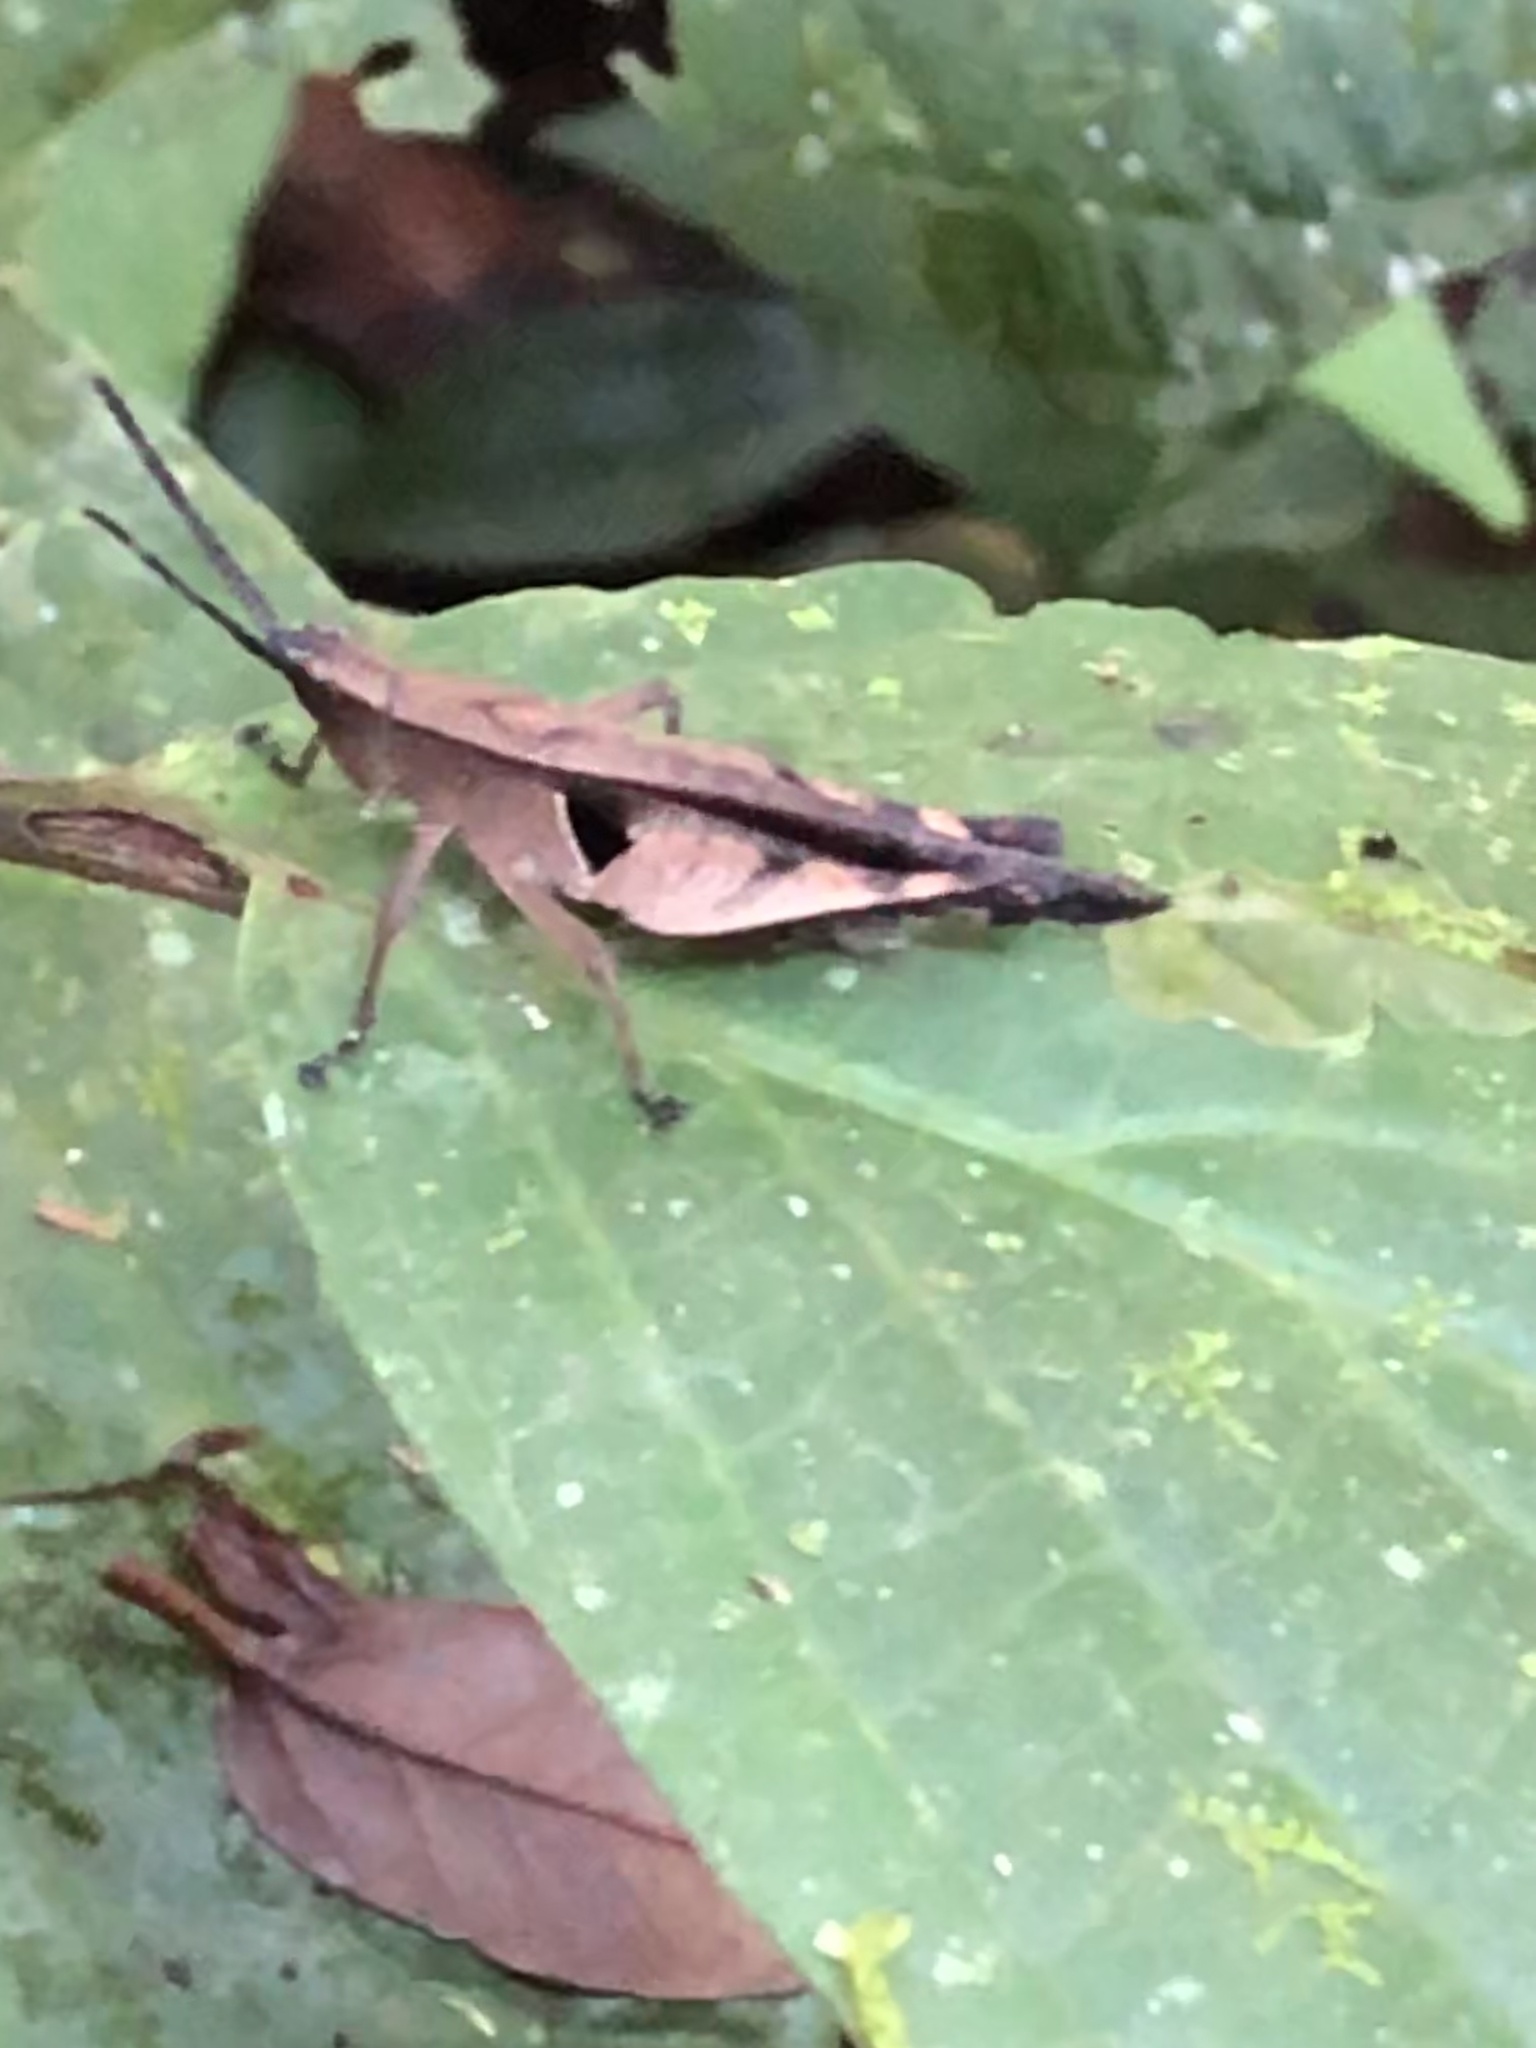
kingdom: Animalia
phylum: Arthropoda
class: Insecta
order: Orthoptera
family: Acrididae
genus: Xiphiola
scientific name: Xiphiola cyanoptera
